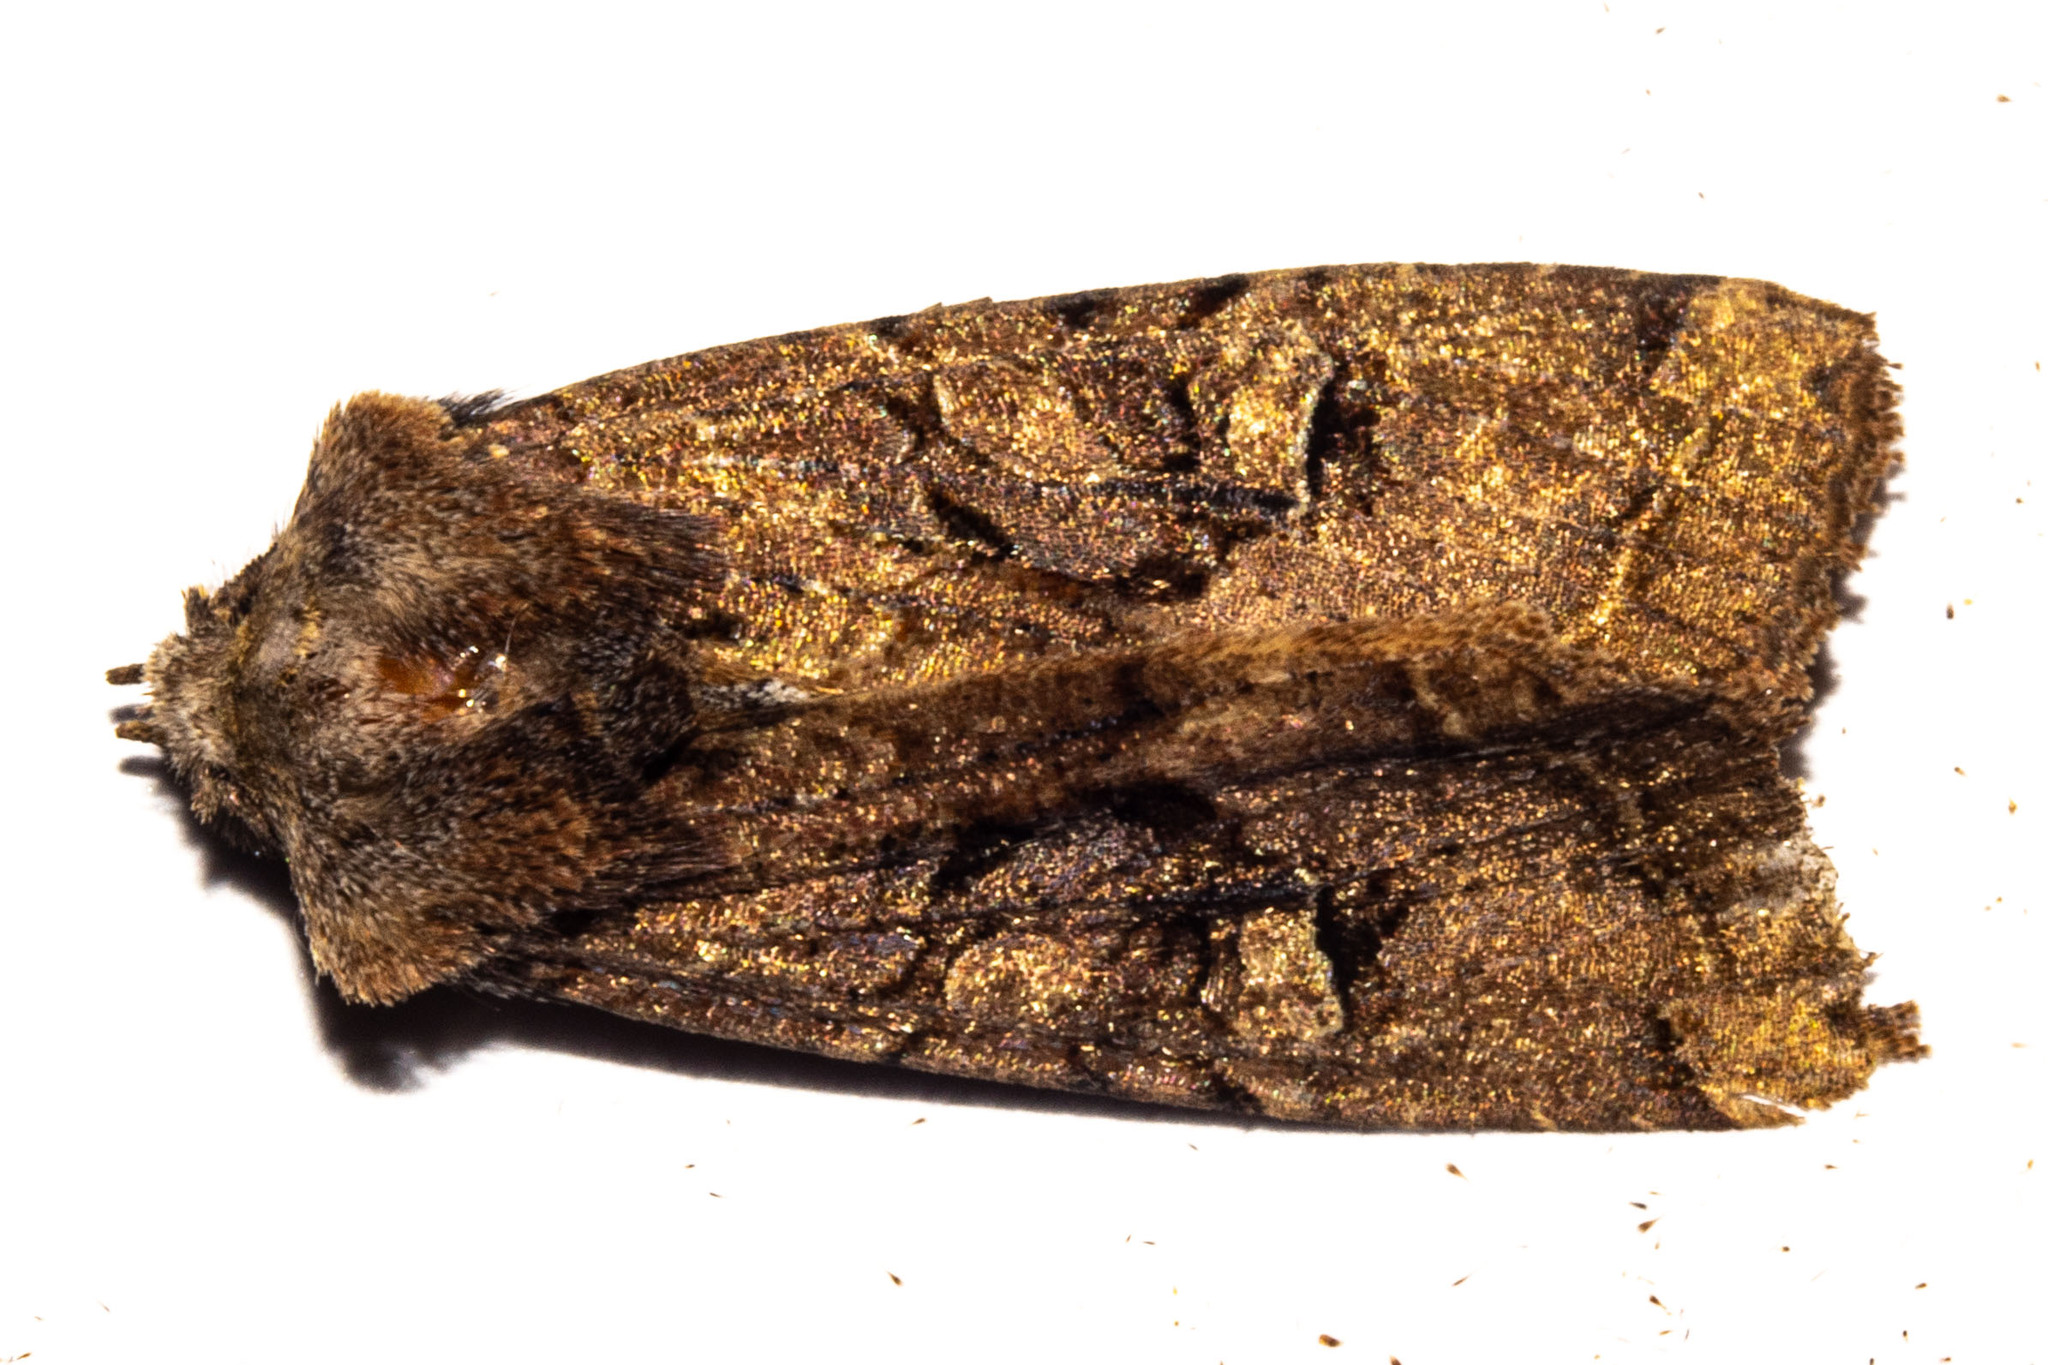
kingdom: Animalia
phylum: Arthropoda
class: Insecta
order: Lepidoptera
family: Noctuidae
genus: Meterana
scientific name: Meterana tartaraea
